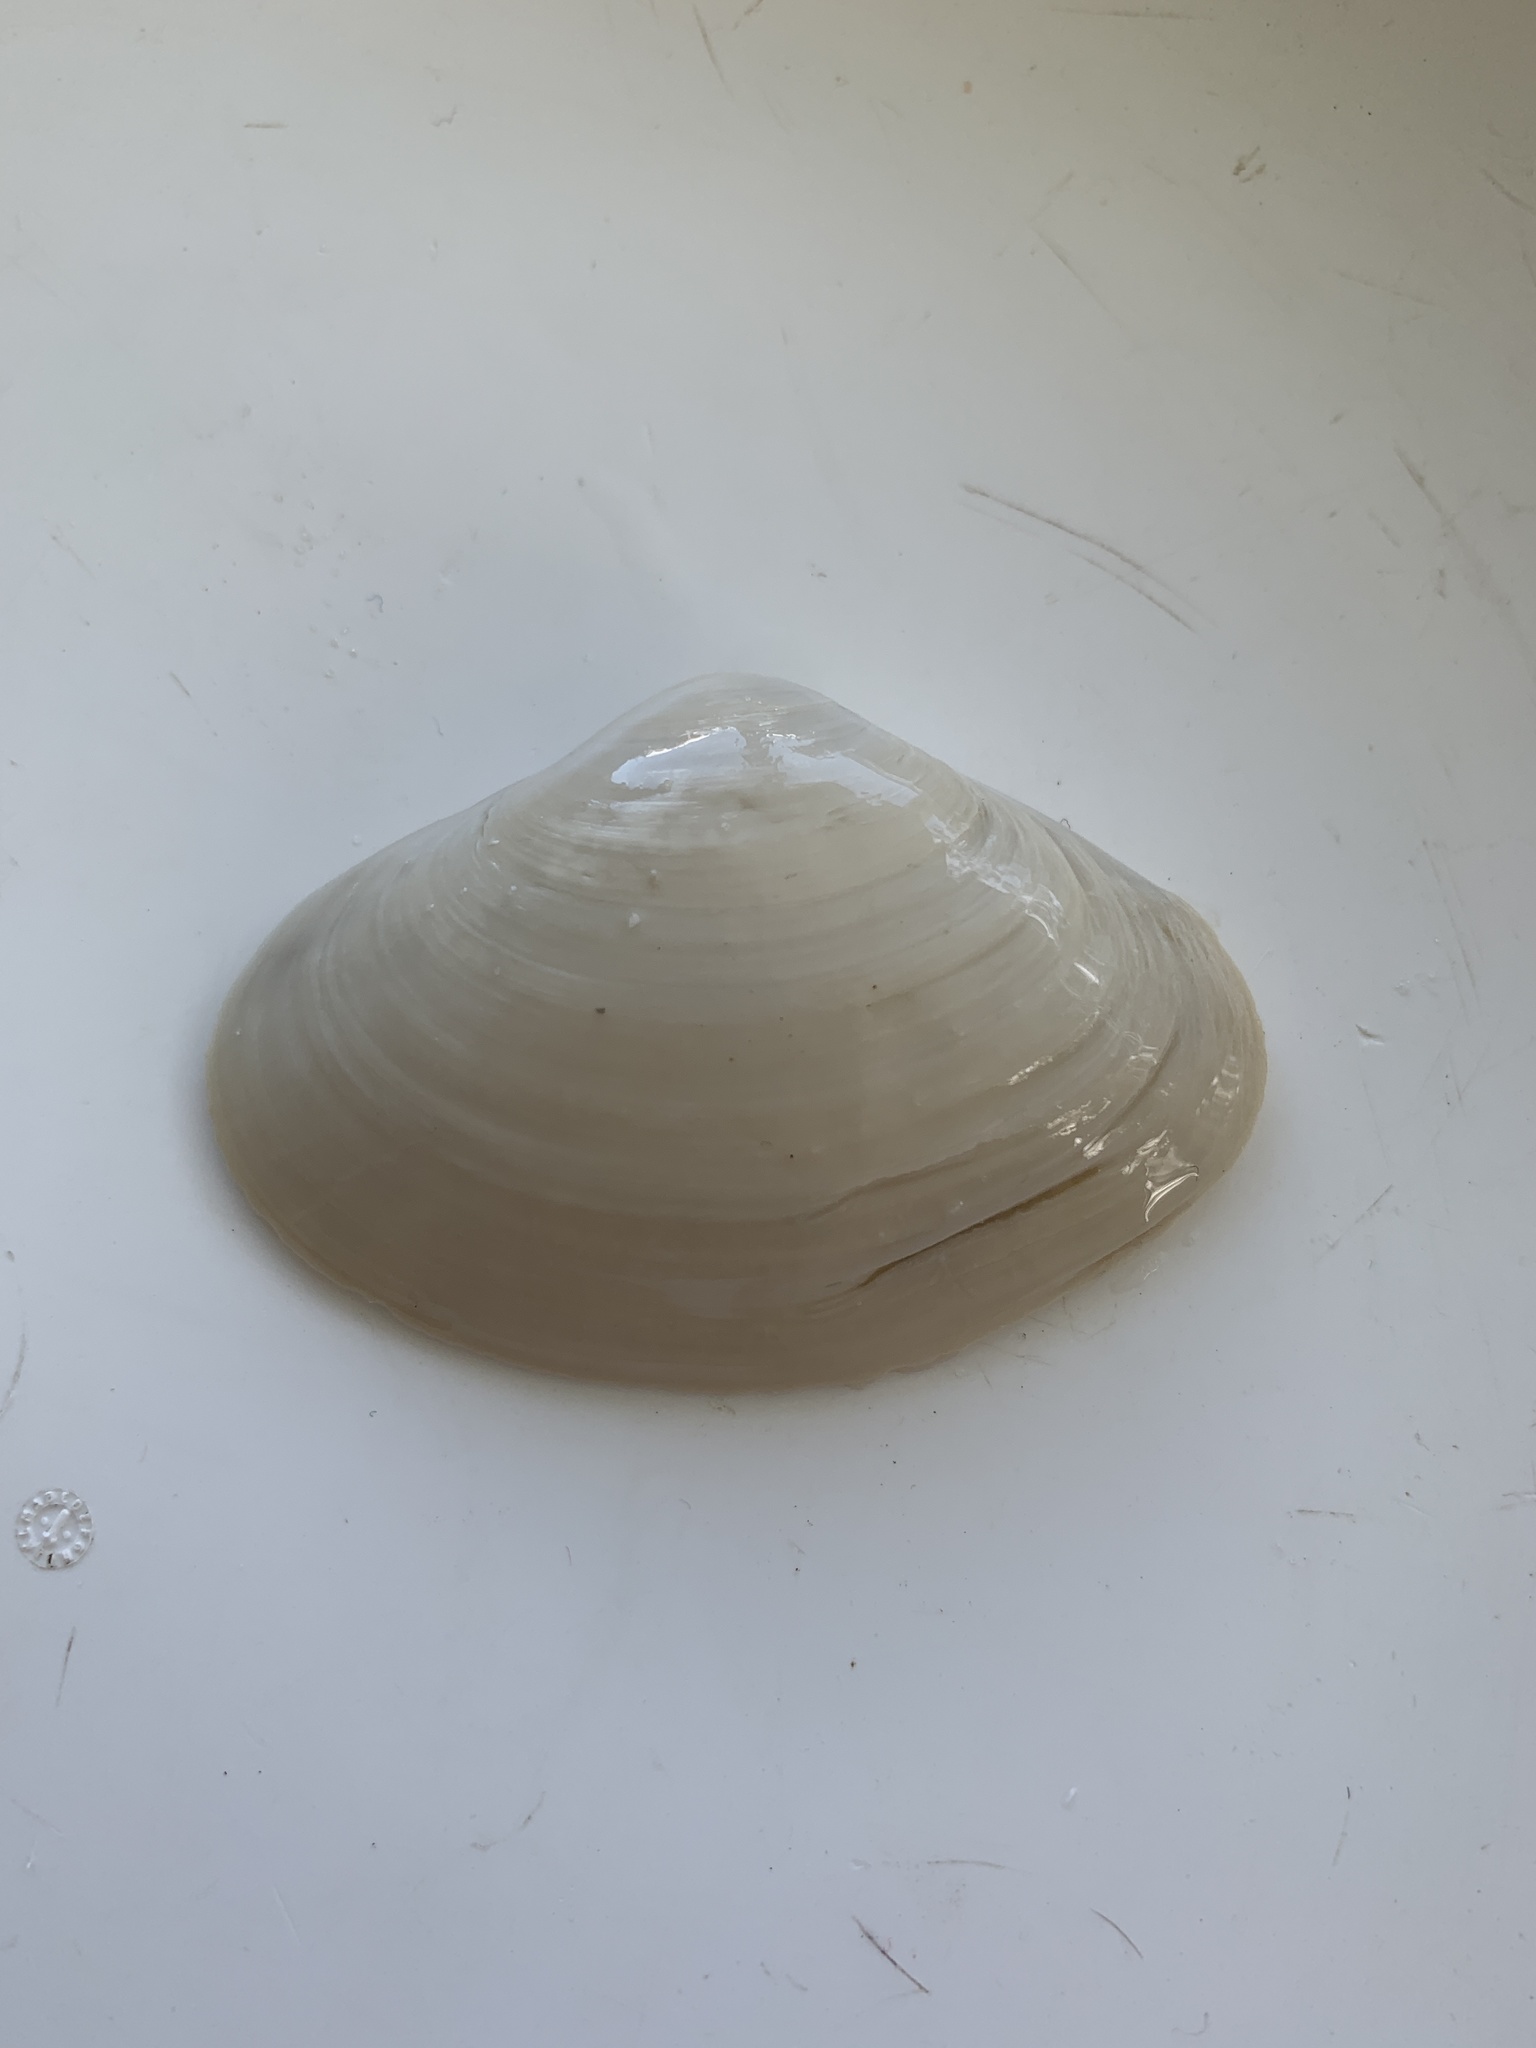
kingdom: Animalia
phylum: Mollusca
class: Bivalvia
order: Venerida
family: Mactridae
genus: Spisula
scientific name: Spisula raveneli
